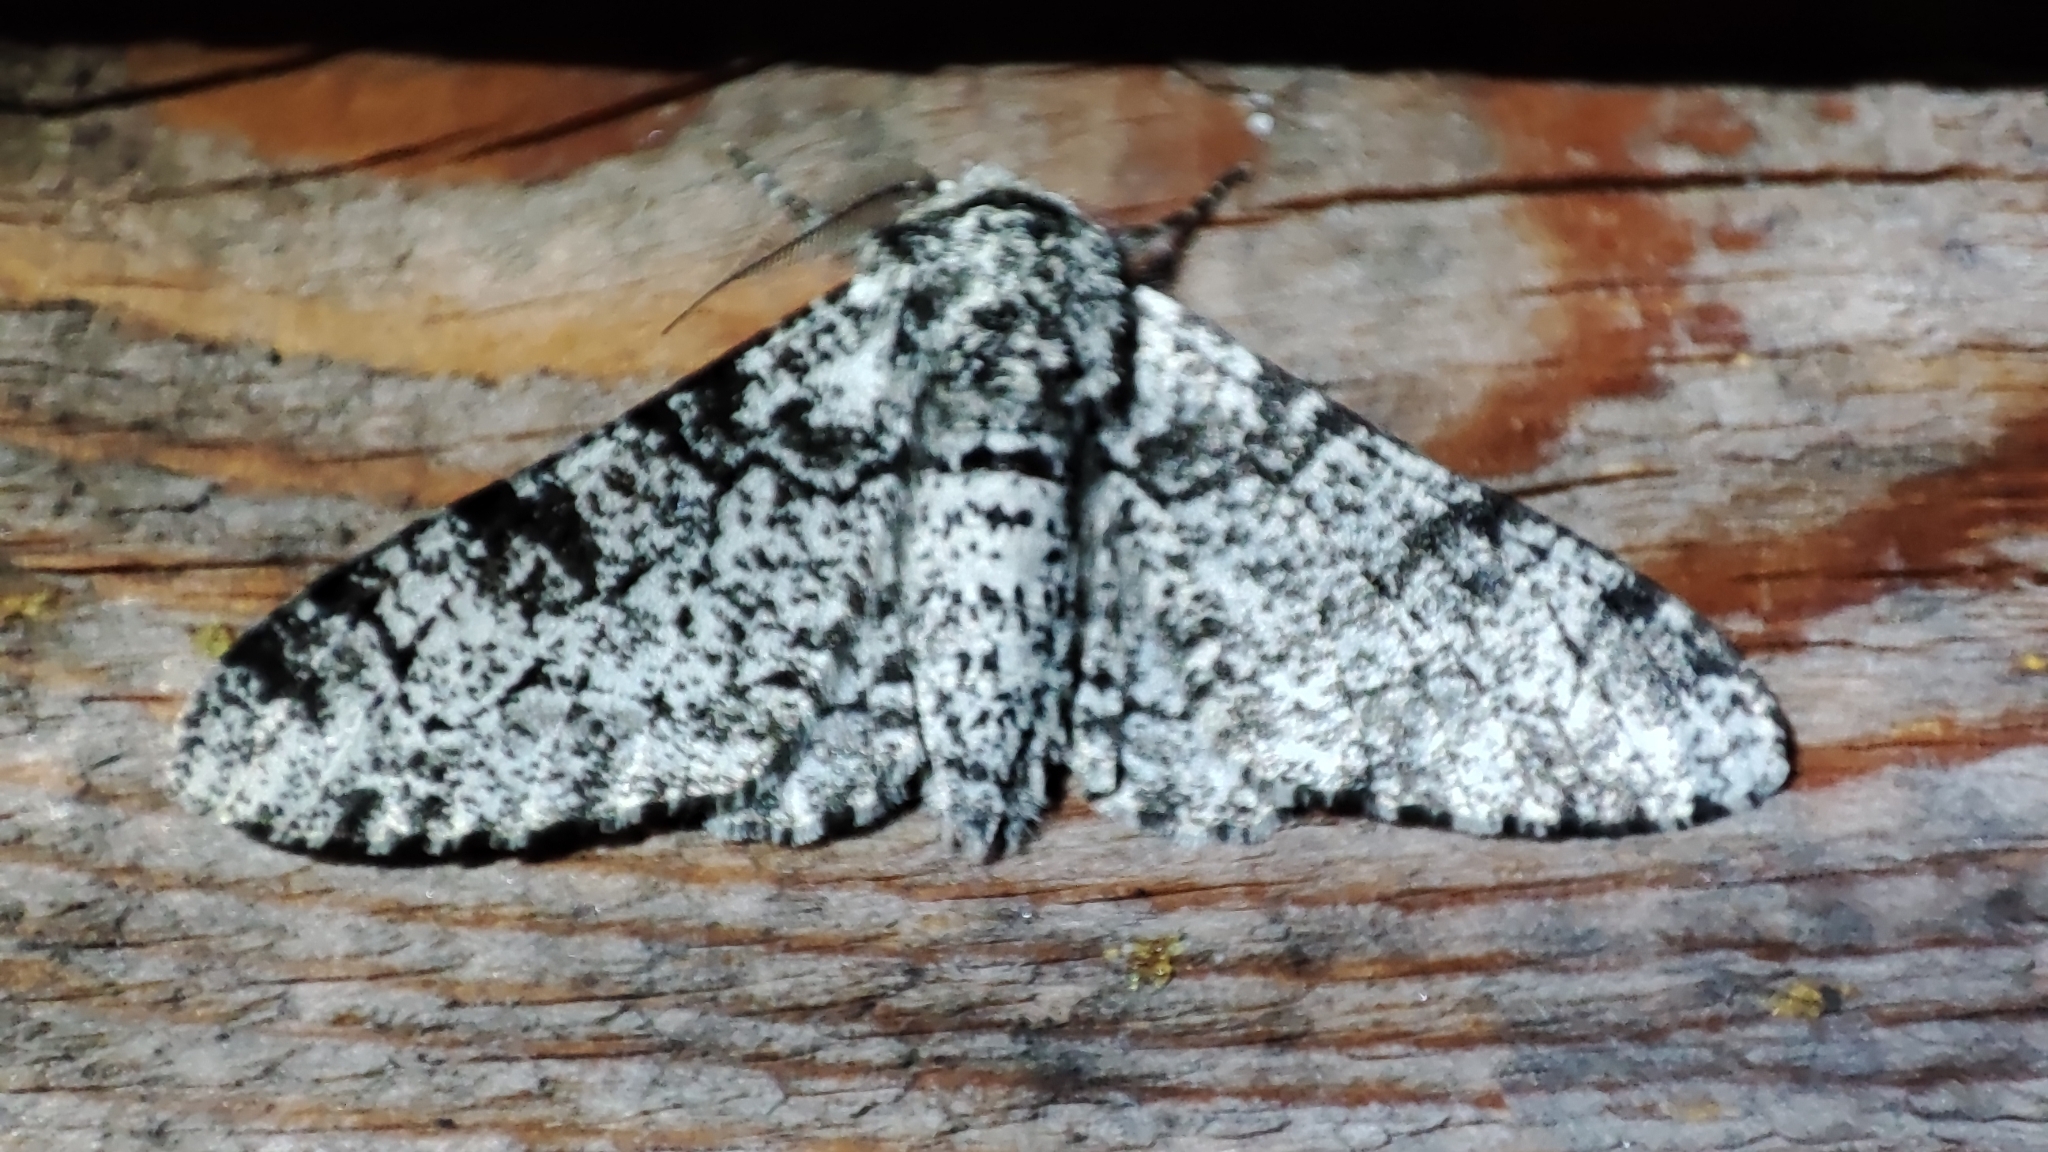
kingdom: Animalia
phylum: Arthropoda
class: Insecta
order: Lepidoptera
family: Geometridae
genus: Biston
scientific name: Biston betularia
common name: Peppered moth
